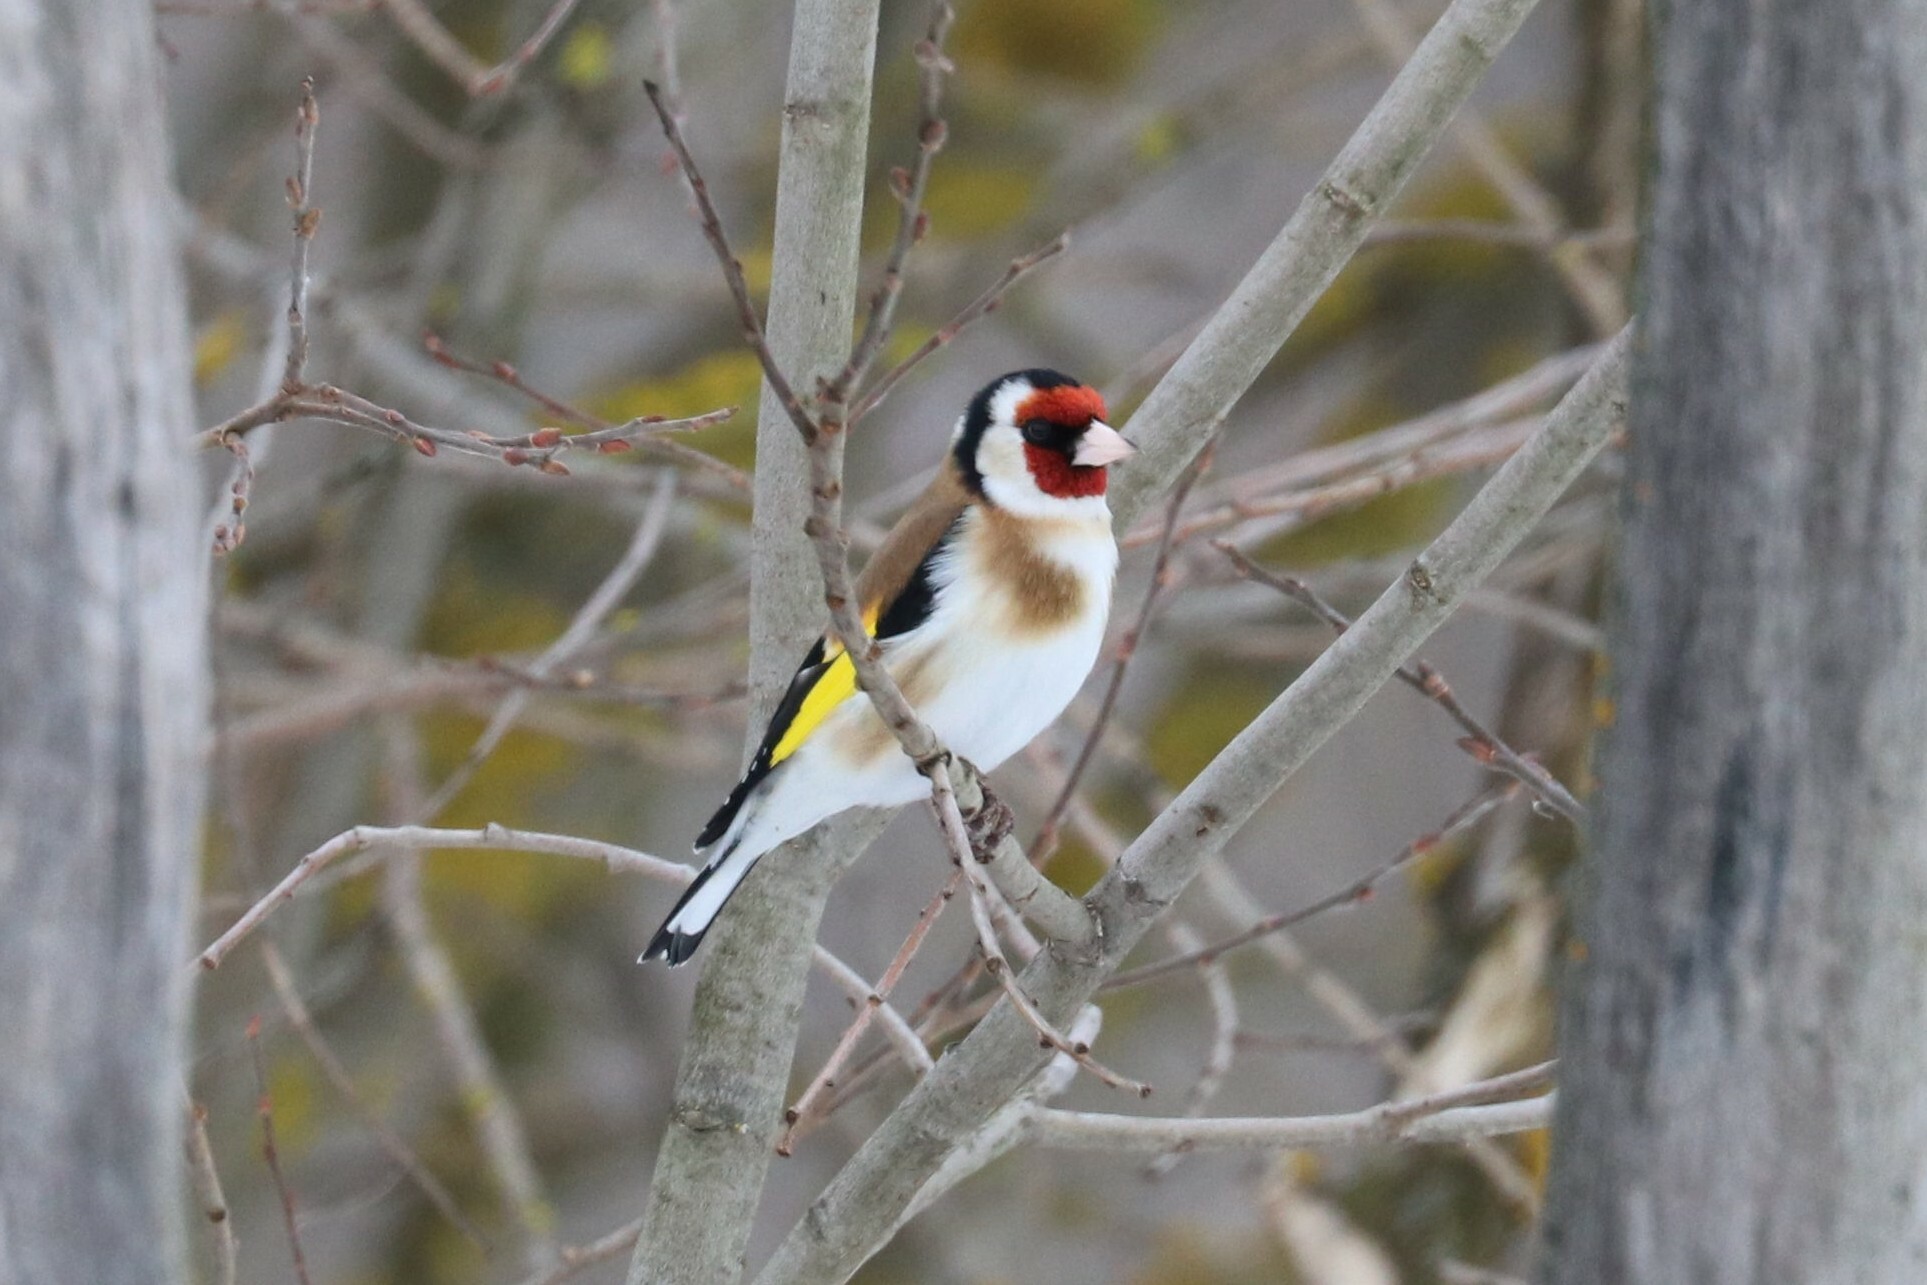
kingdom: Animalia
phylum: Chordata
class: Aves
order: Passeriformes
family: Fringillidae
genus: Carduelis
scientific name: Carduelis carduelis
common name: European goldfinch
